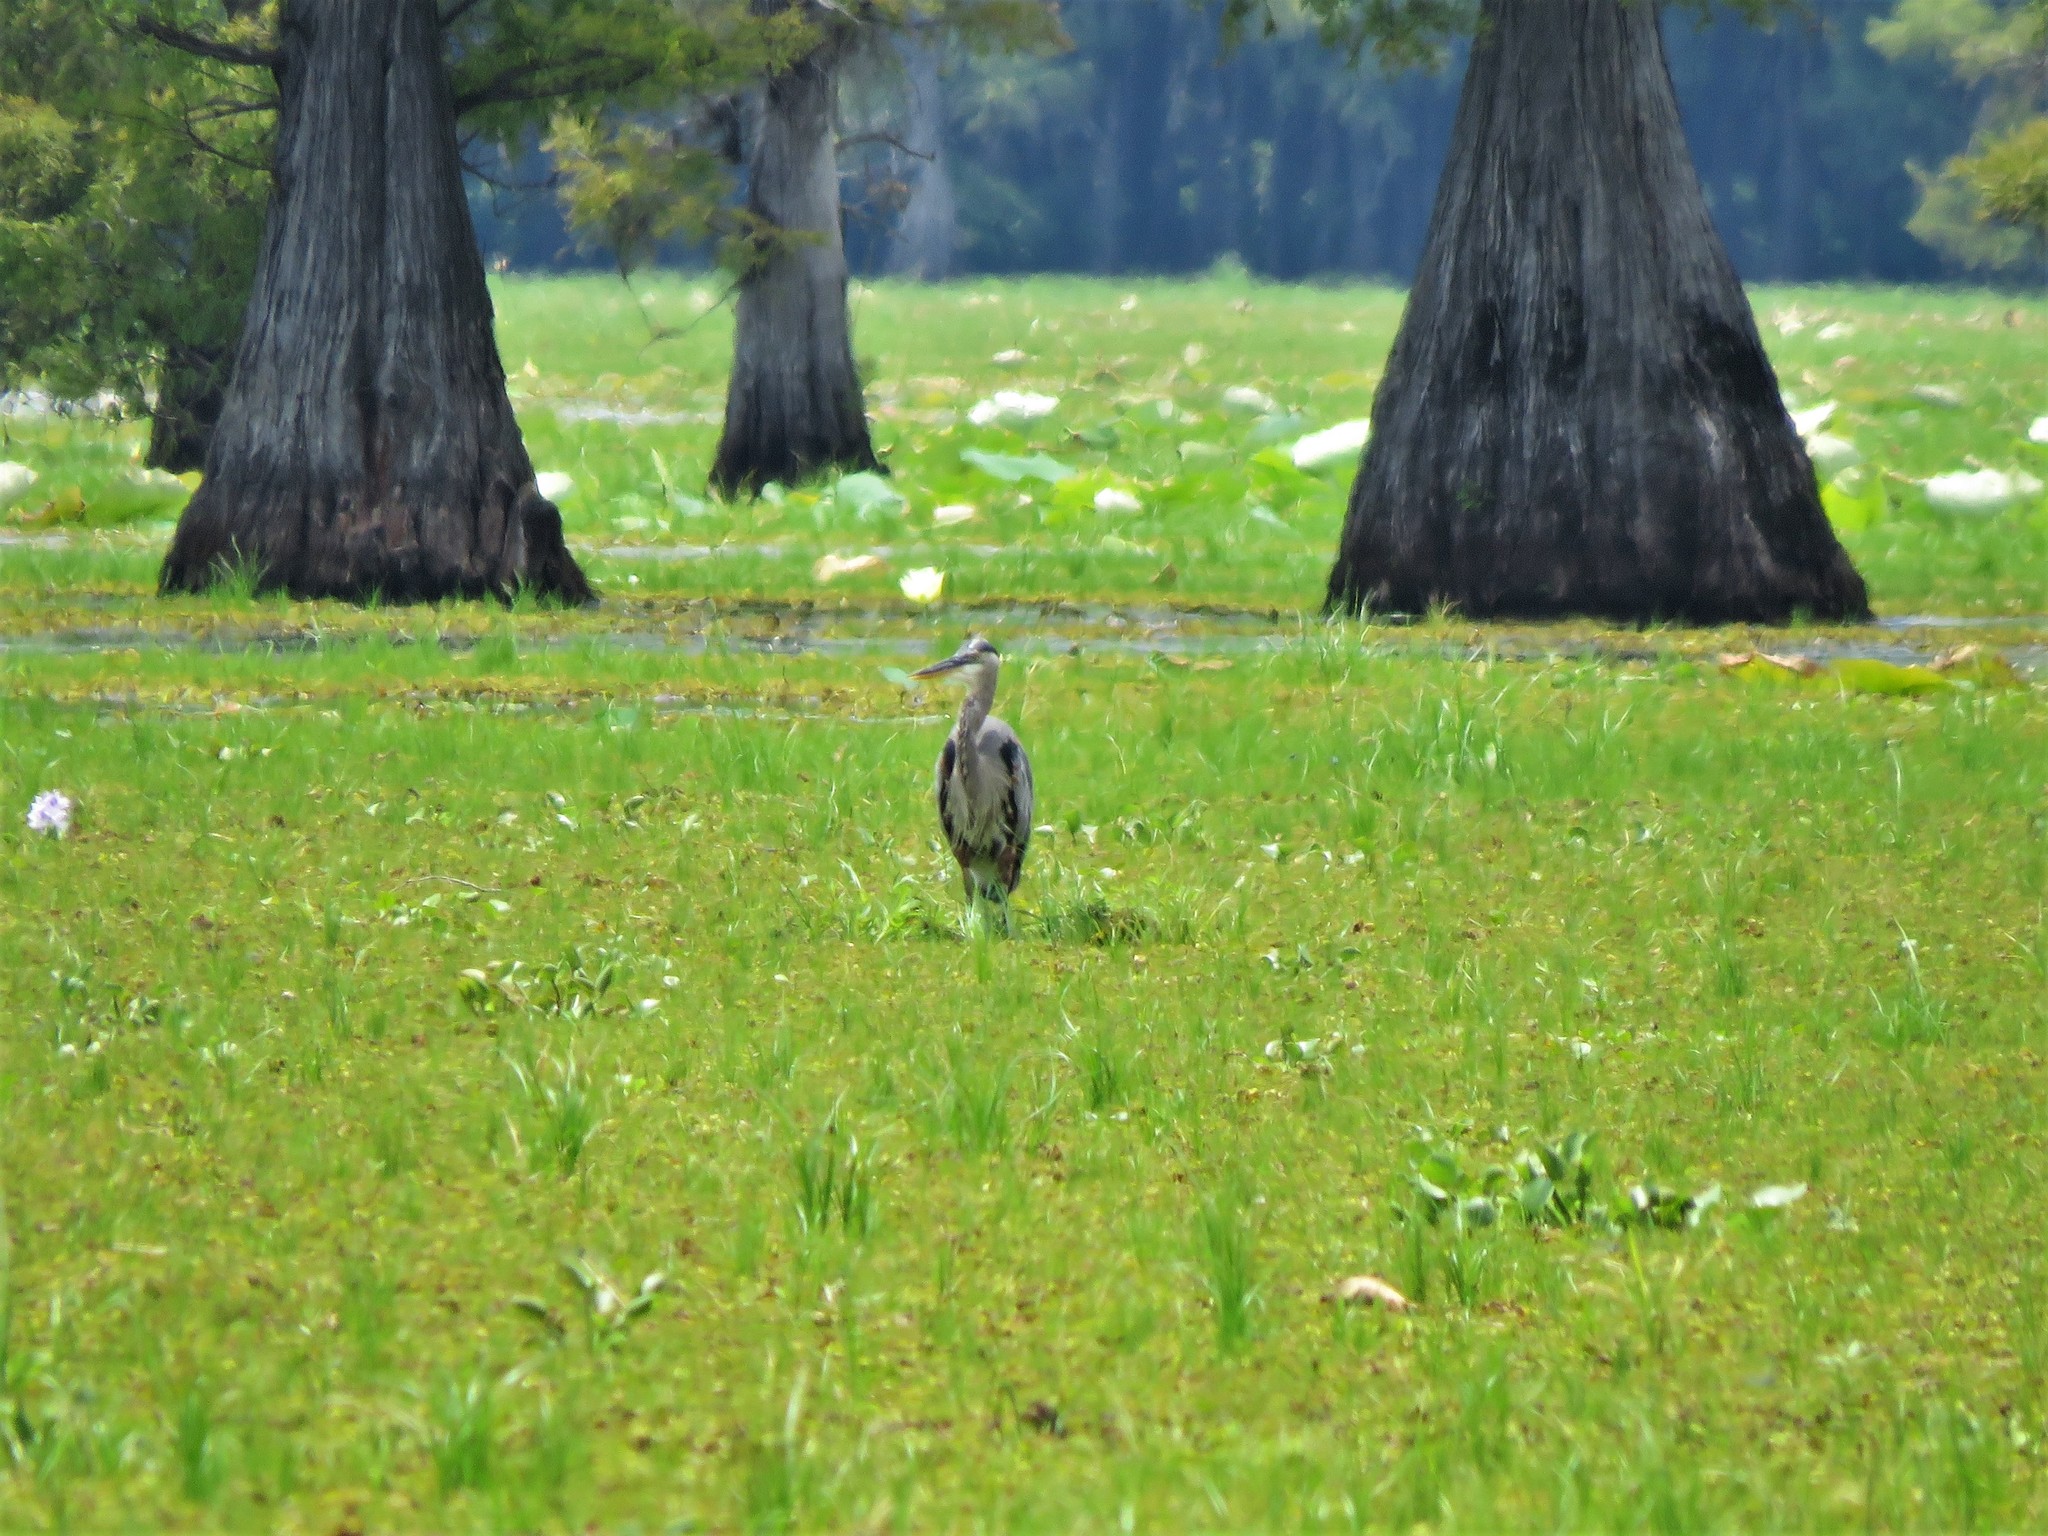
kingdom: Animalia
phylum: Chordata
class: Aves
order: Pelecaniformes
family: Ardeidae
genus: Ardea
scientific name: Ardea herodias
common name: Great blue heron
